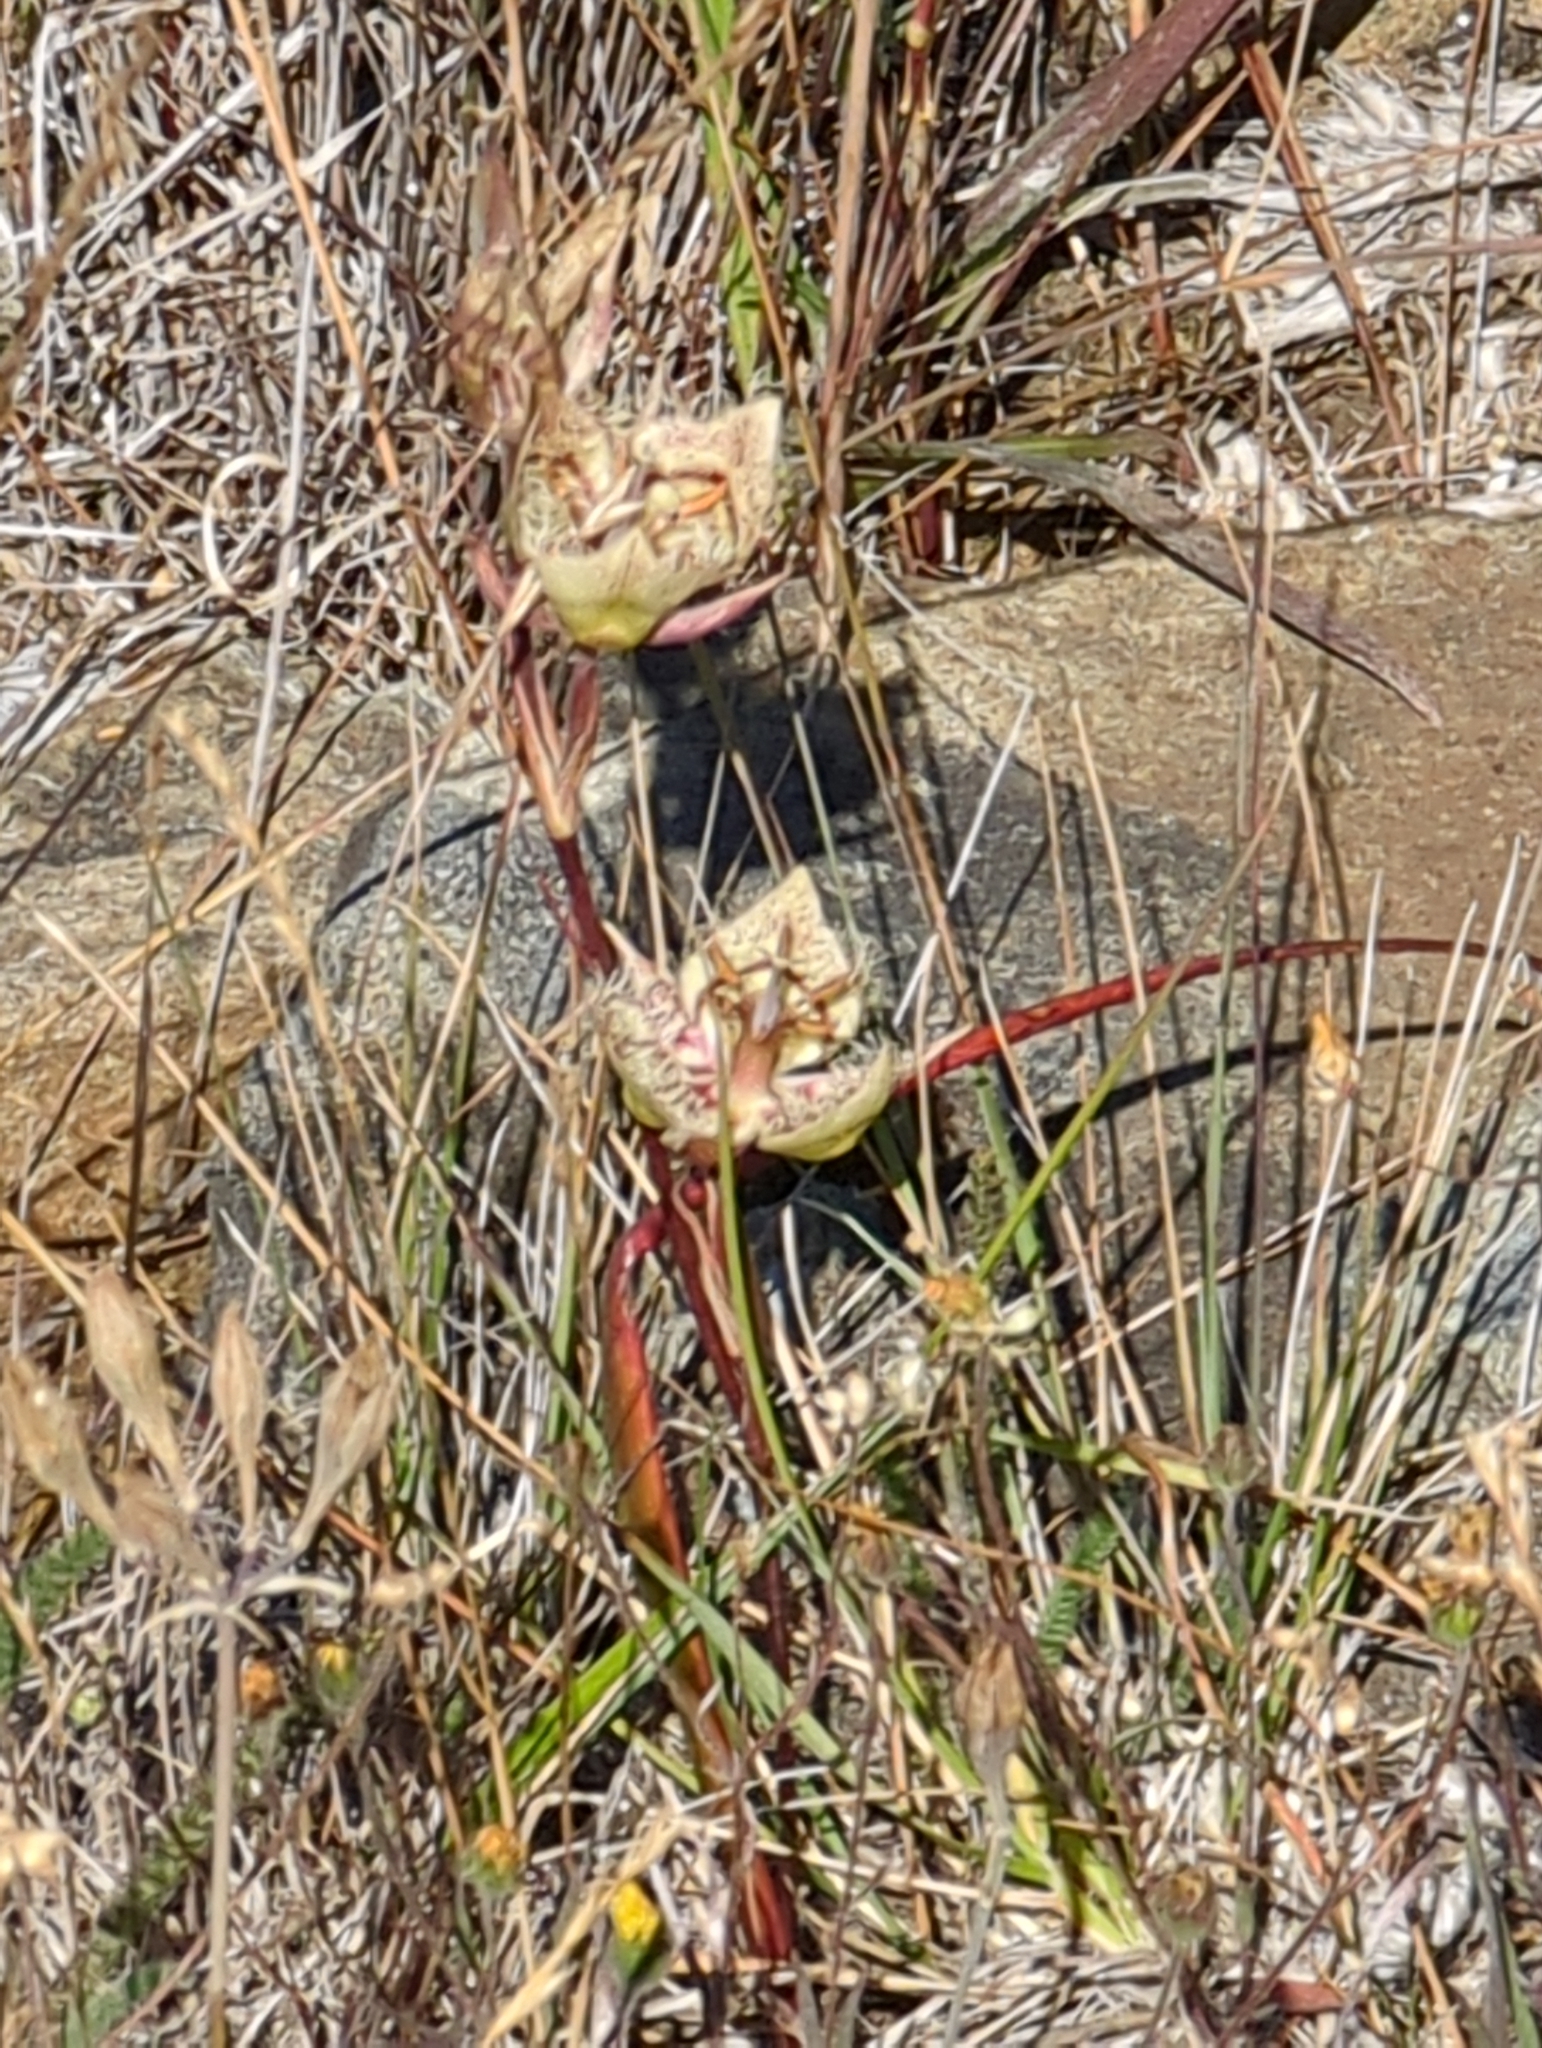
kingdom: Plantae
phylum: Tracheophyta
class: Liliopsida
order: Liliales
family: Liliaceae
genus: Calochortus
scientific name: Calochortus tiburonensis
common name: Tiburon mariposa-lily
